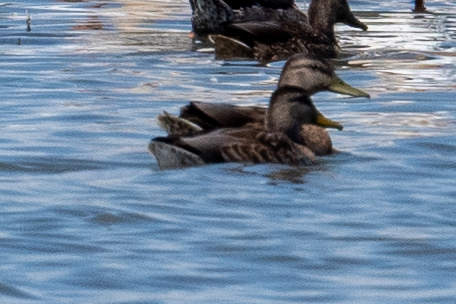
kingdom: Animalia
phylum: Chordata
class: Aves
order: Anseriformes
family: Anatidae
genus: Anas
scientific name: Anas platyrhynchos
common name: Mallard
